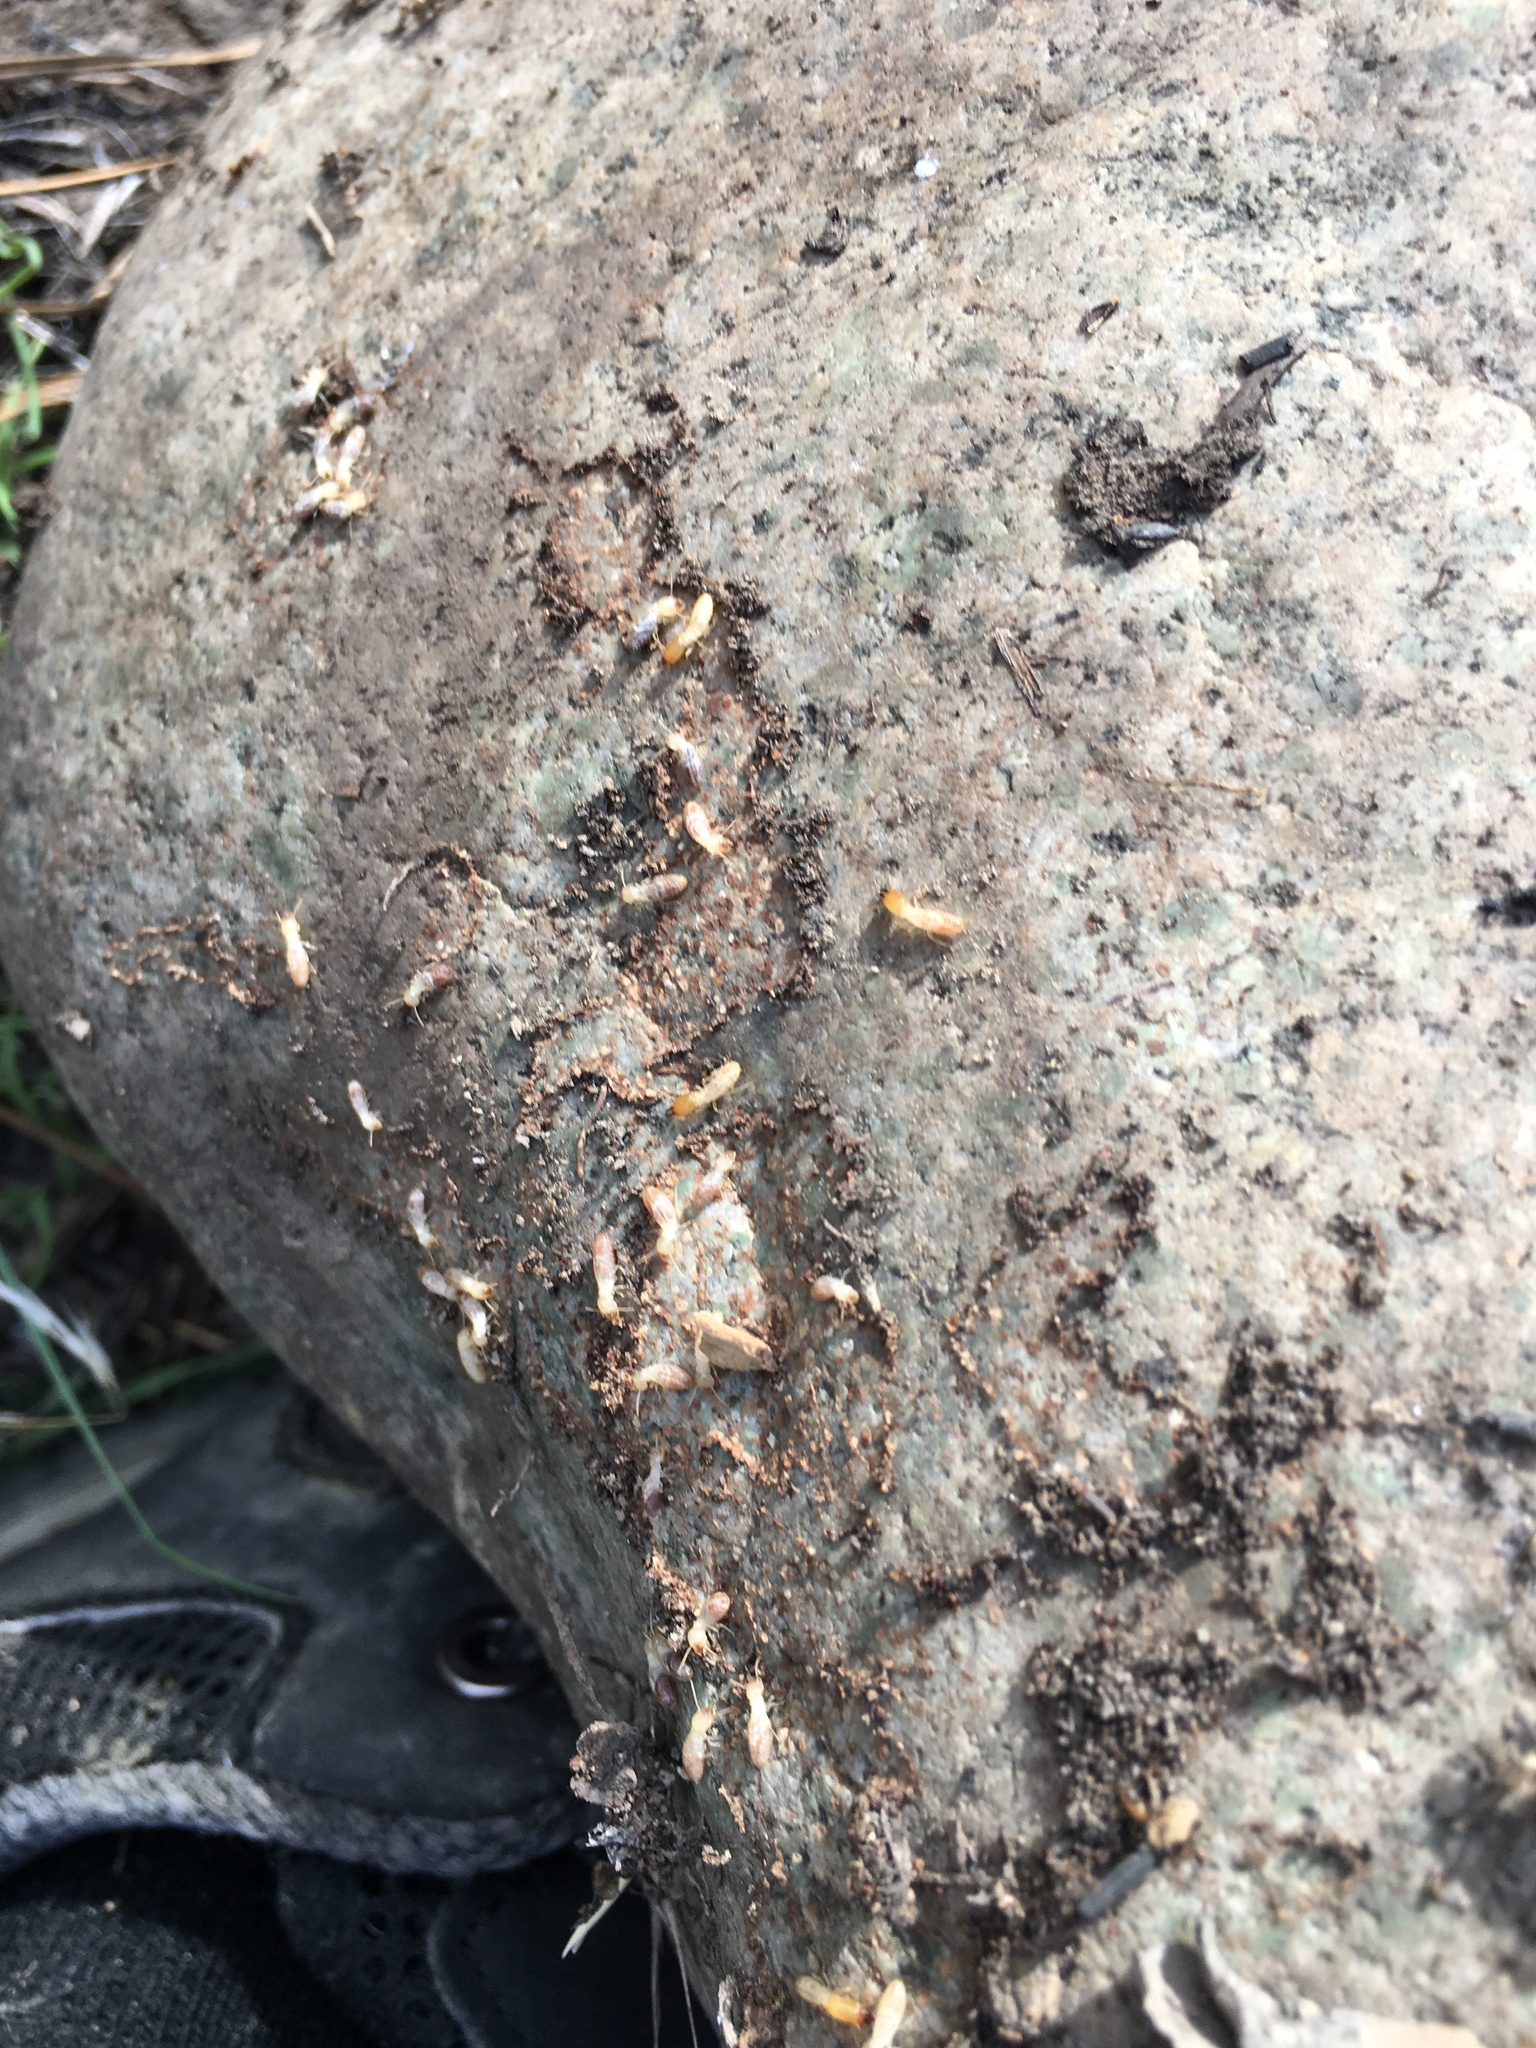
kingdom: Animalia
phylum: Arthropoda
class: Insecta
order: Blattodea
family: Rhinotermitidae
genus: Reticulitermes
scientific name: Reticulitermes hesperus
